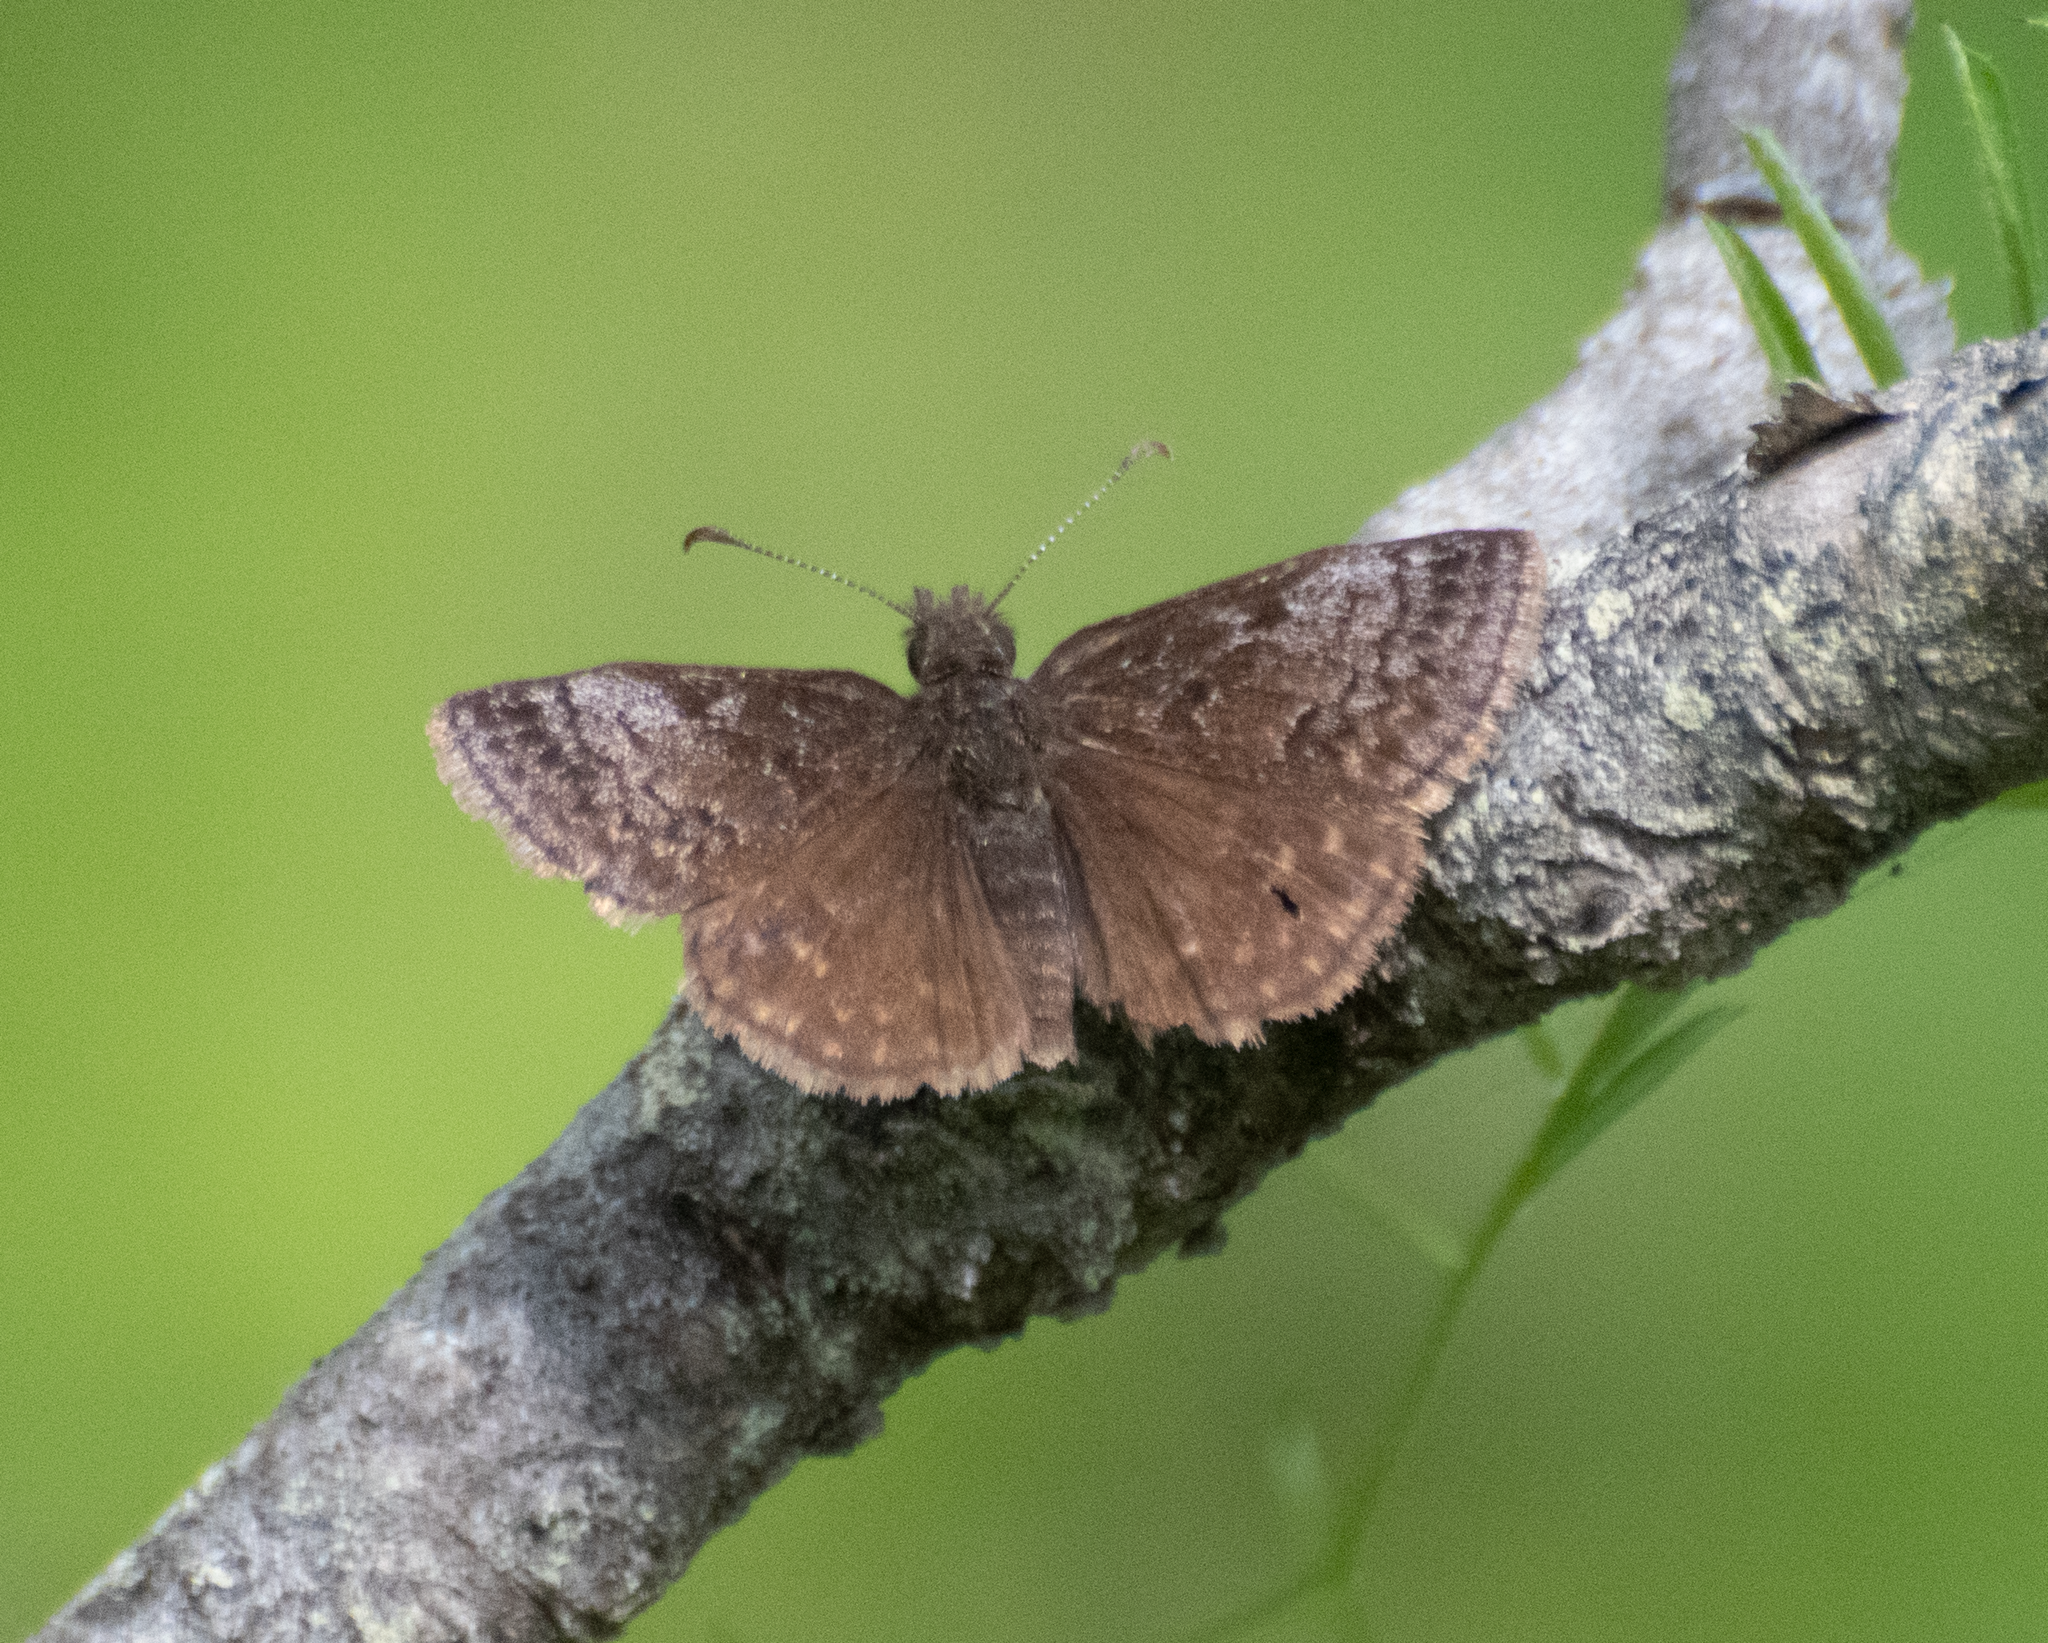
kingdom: Animalia
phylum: Arthropoda
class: Insecta
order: Lepidoptera
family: Hesperiidae
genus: Erynnis
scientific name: Erynnis icelus
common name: Dreamy duskywing
